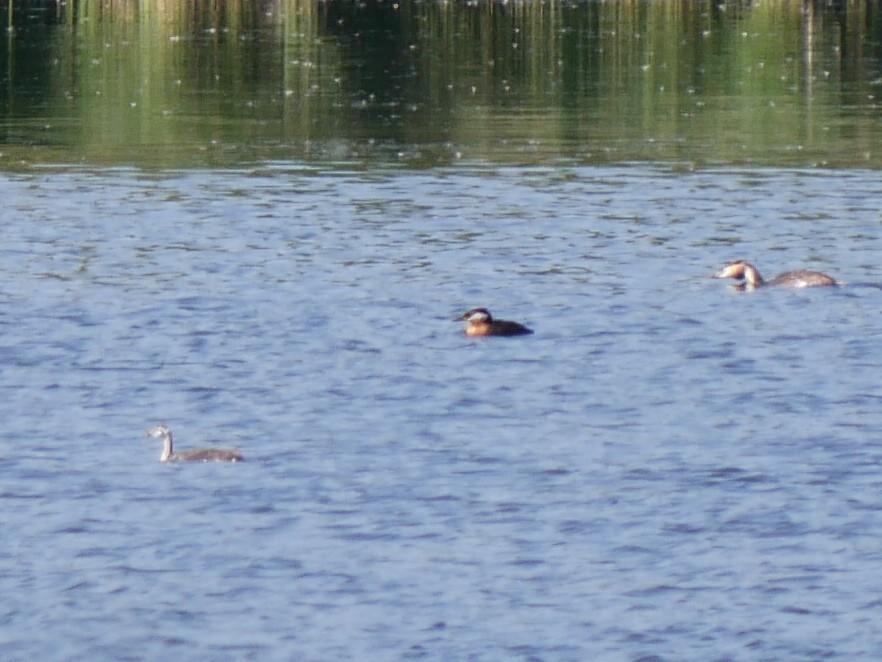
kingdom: Animalia
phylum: Chordata
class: Aves
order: Podicipediformes
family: Podicipedidae
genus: Podiceps
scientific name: Podiceps grisegena
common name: Red-necked grebe
